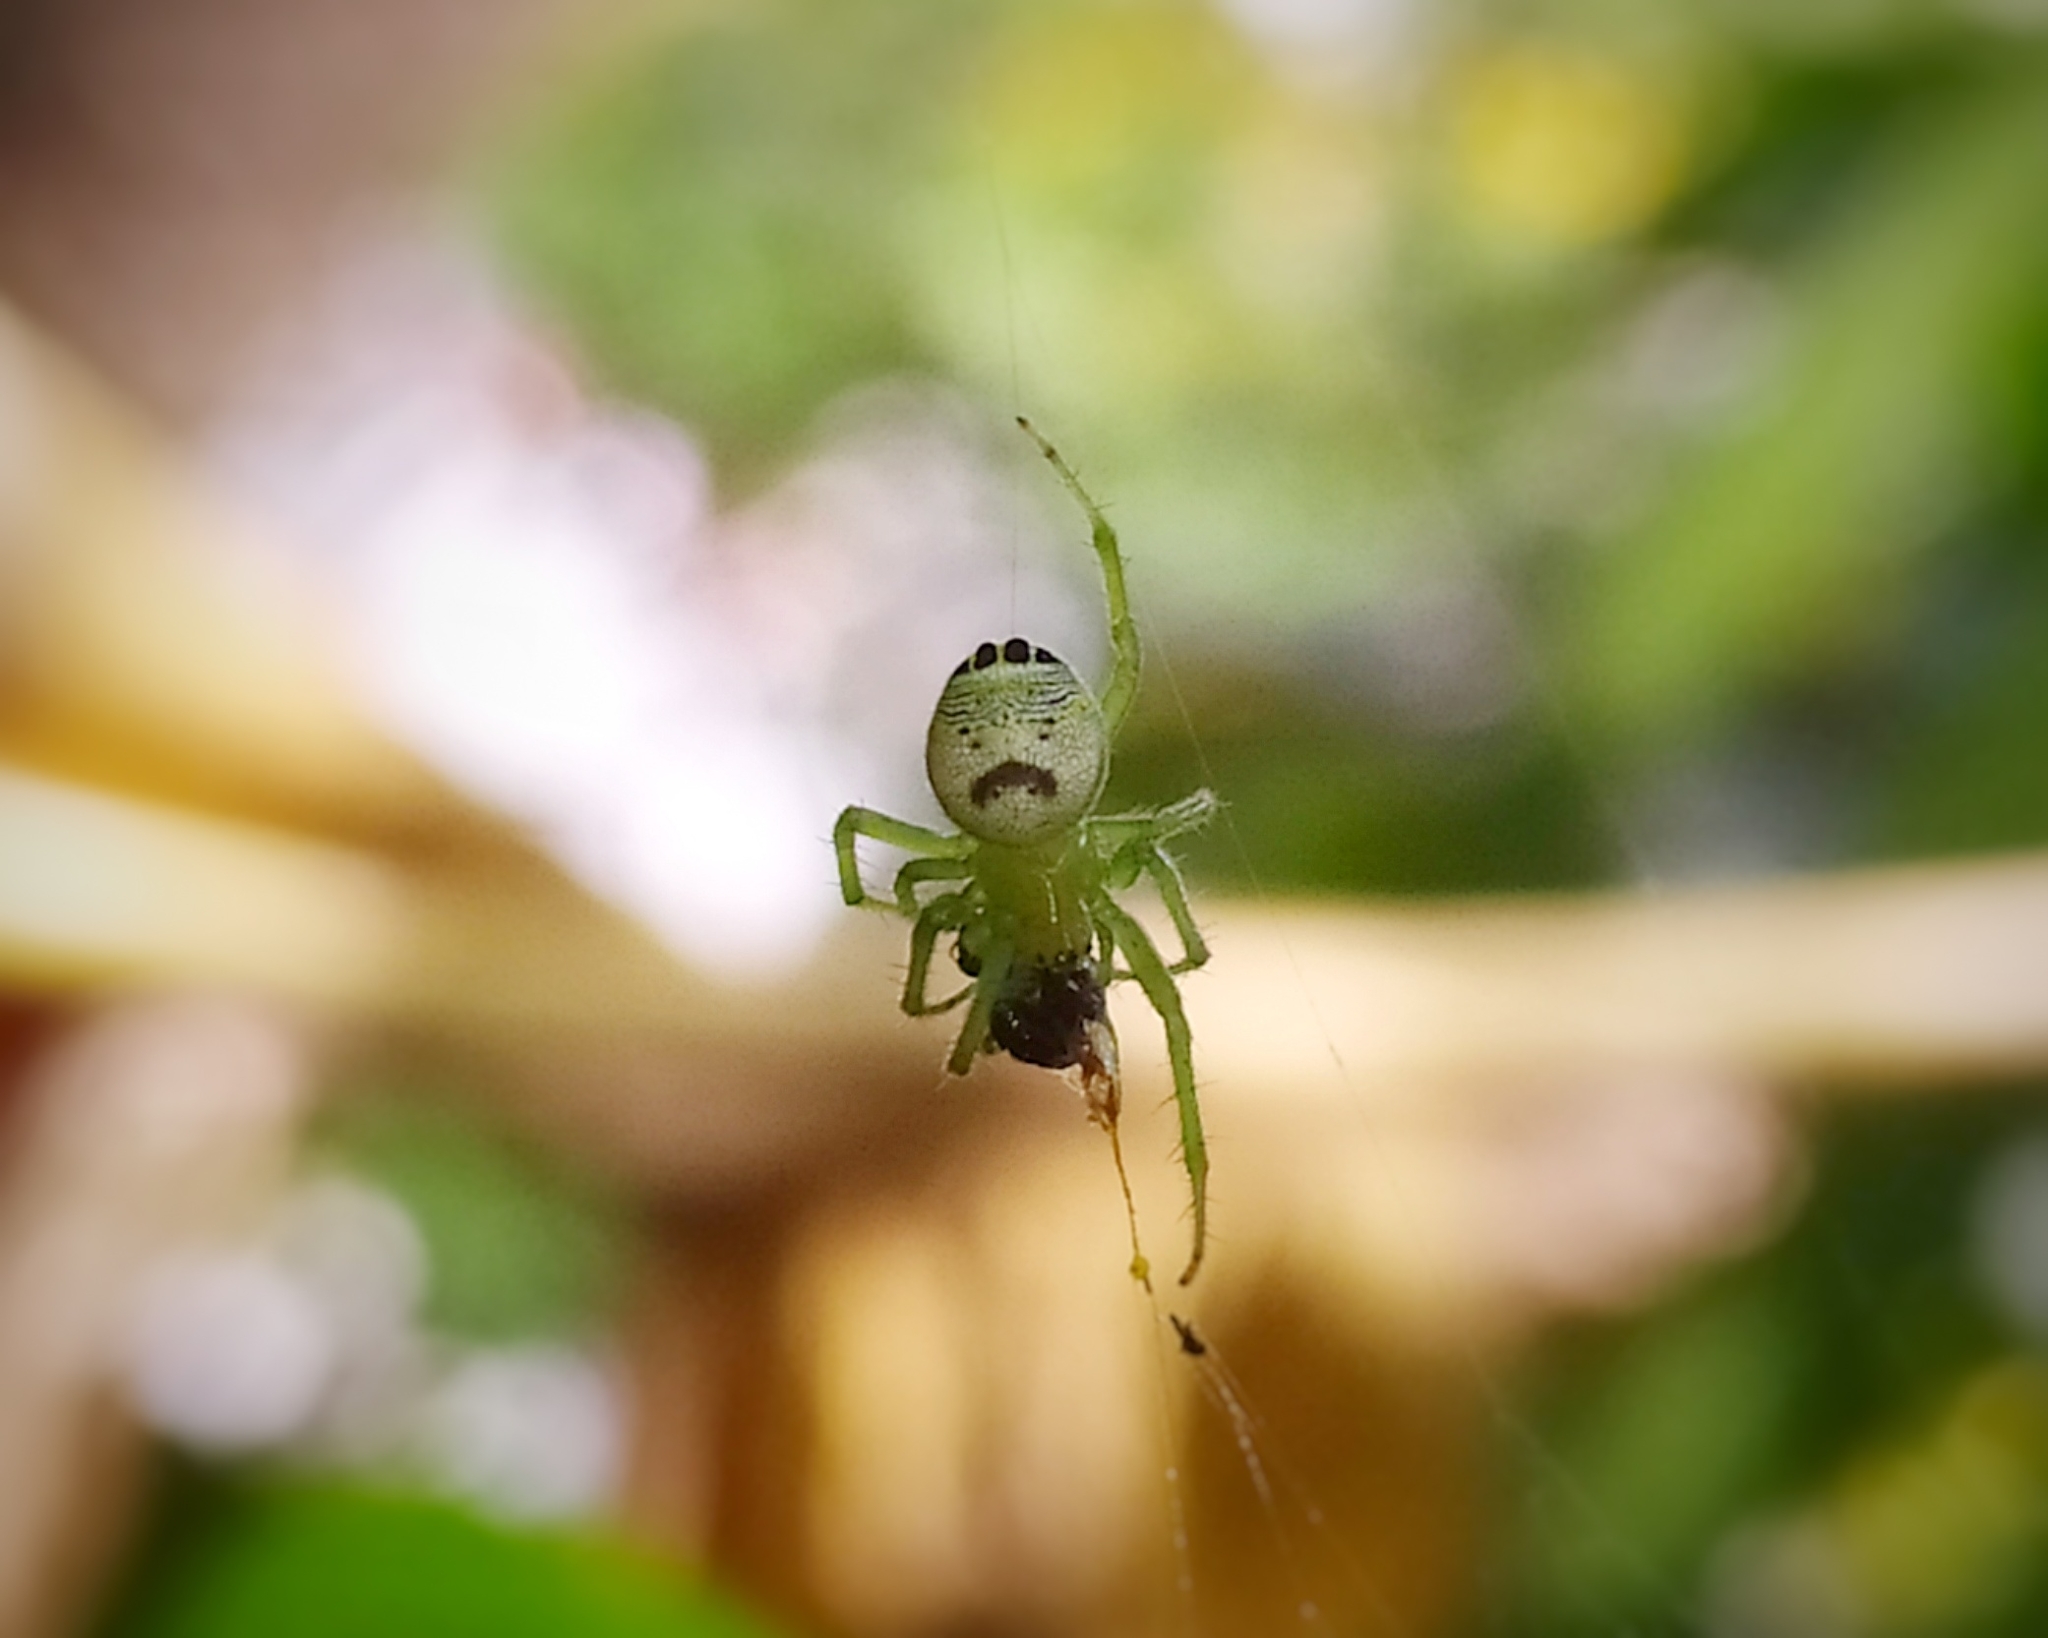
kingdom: Animalia
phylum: Arthropoda
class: Arachnida
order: Araneae
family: Araneidae
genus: Bijoaraneus
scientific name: Bijoaraneus mitificus
